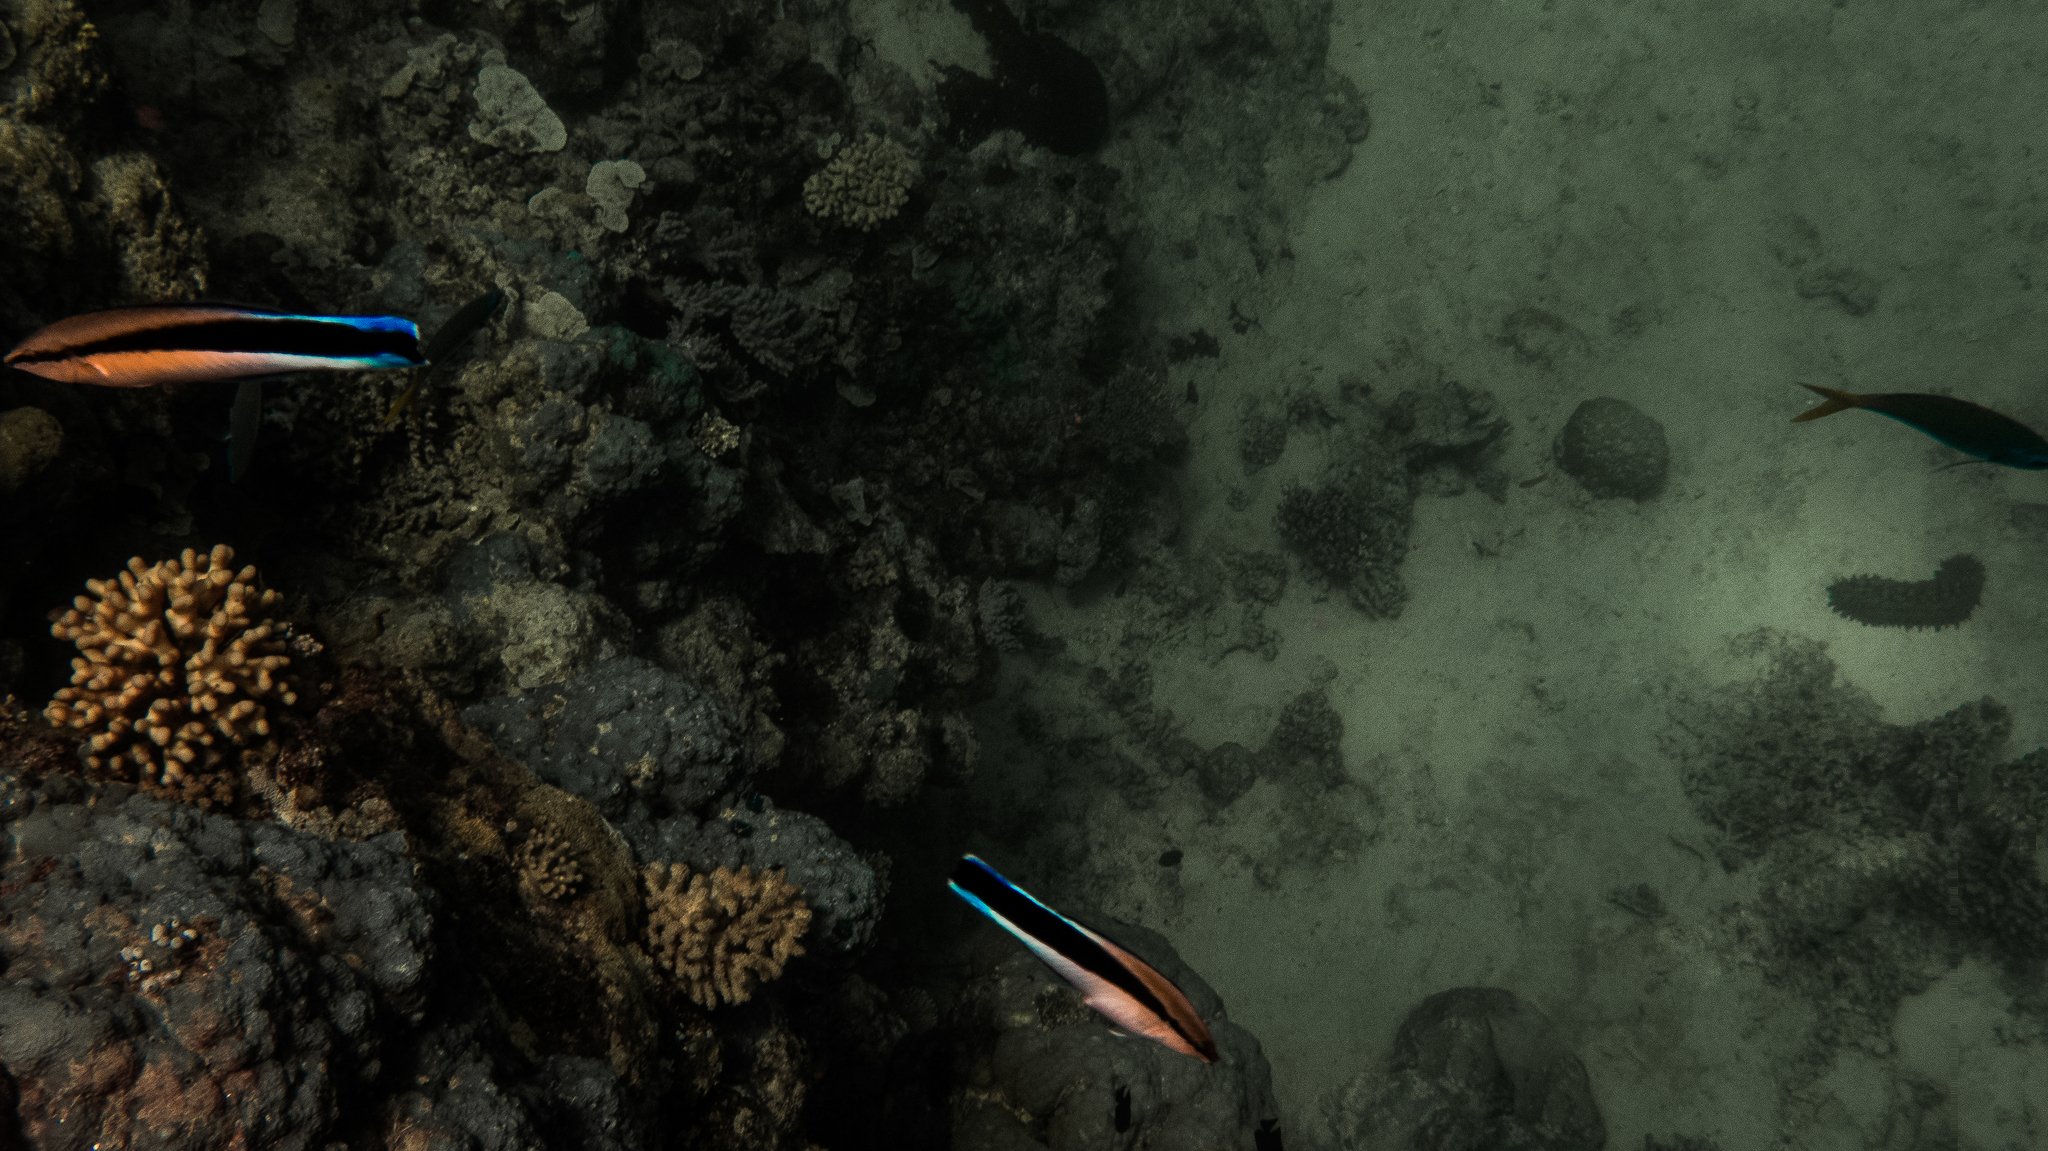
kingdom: Animalia
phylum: Chordata
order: Perciformes
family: Labridae
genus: Labroides
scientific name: Labroides dimidiatus
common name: Blue diesel wrasse
